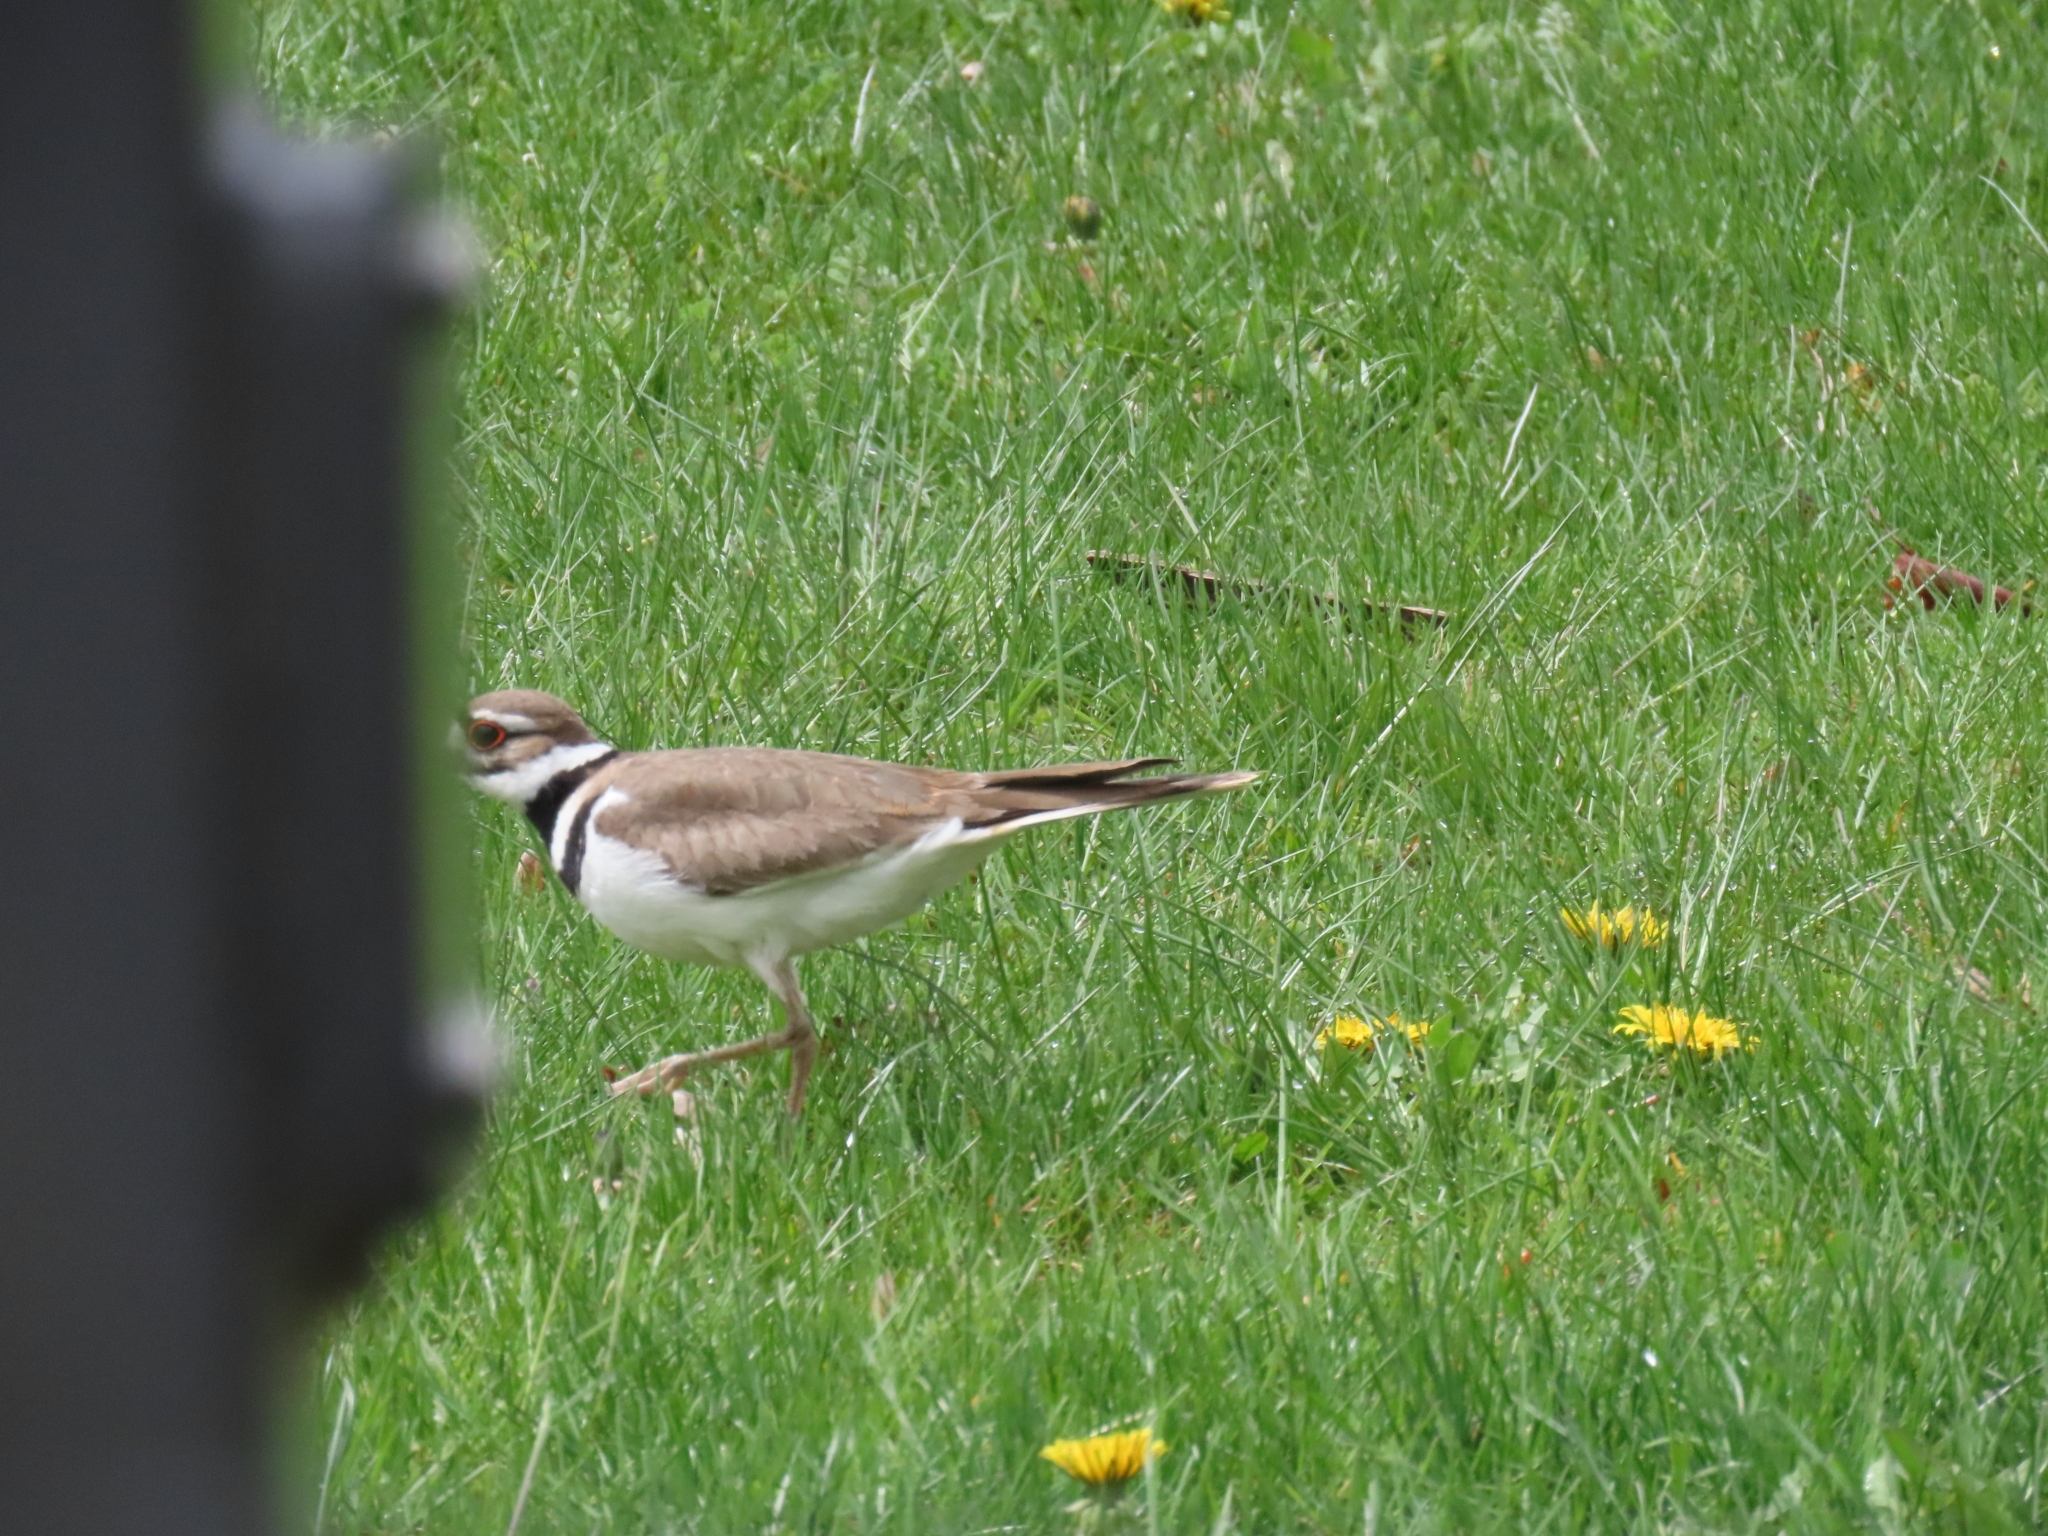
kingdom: Animalia
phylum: Chordata
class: Aves
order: Charadriiformes
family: Charadriidae
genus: Charadrius
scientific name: Charadrius vociferus
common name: Killdeer
